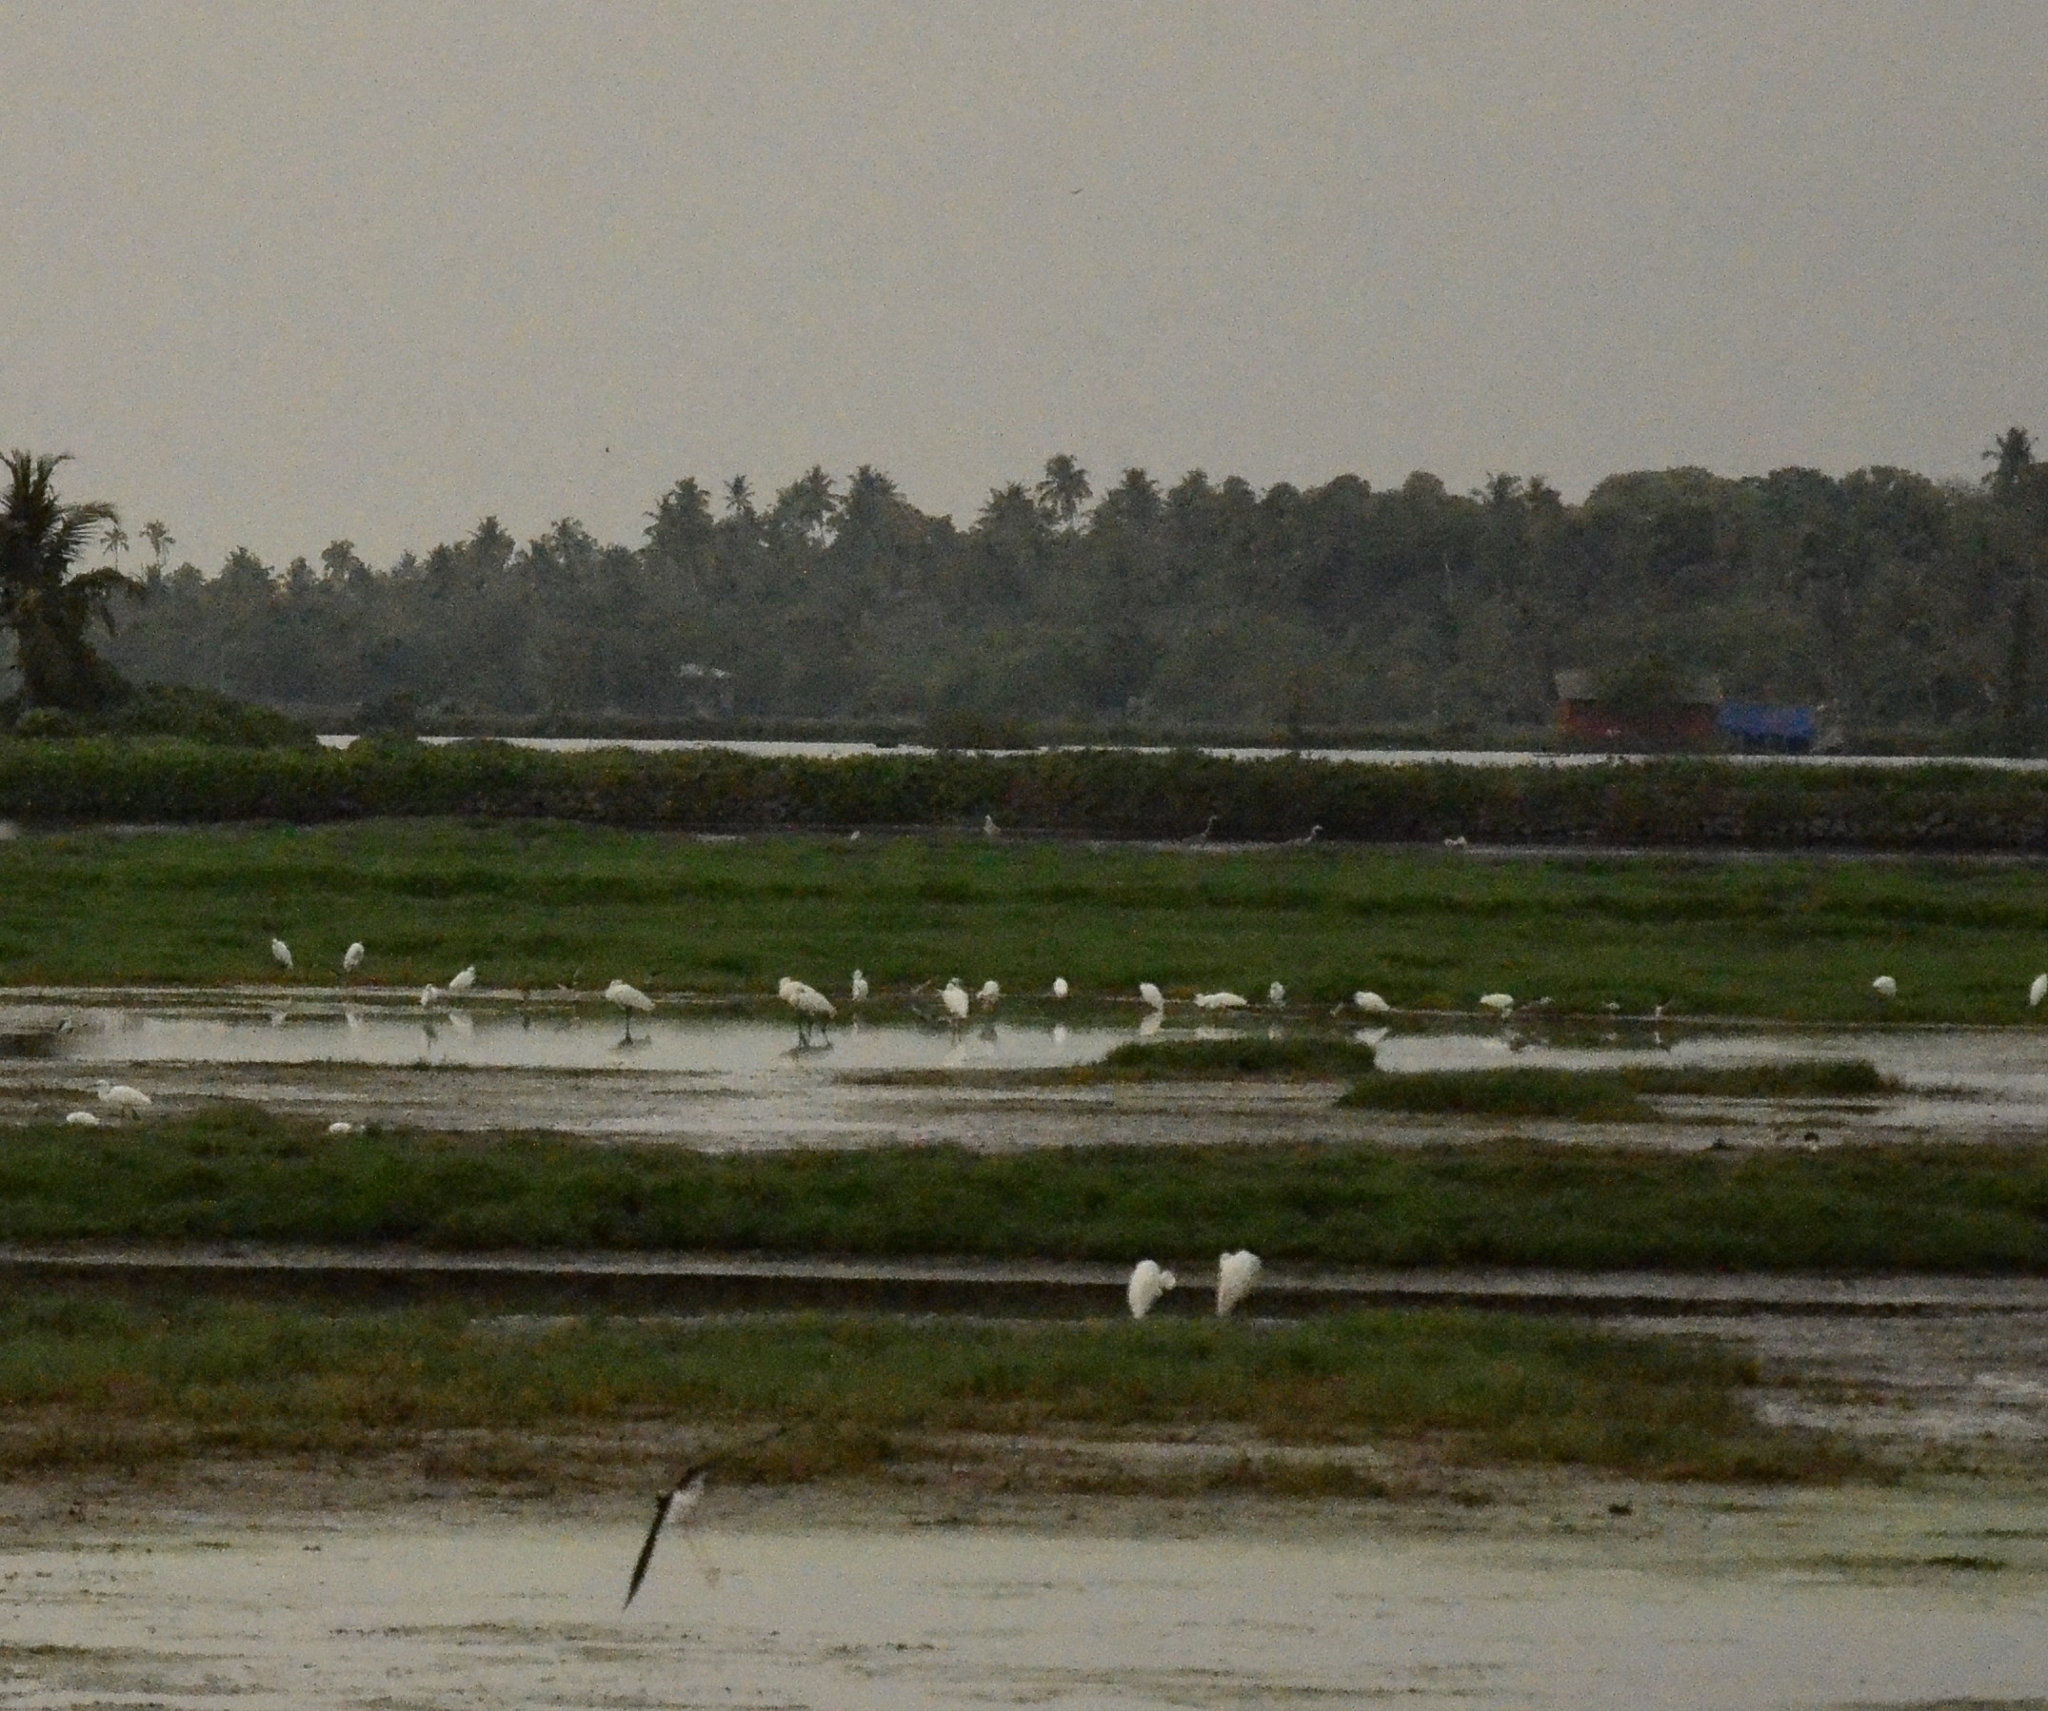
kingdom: Animalia
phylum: Chordata
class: Aves
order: Pelecaniformes
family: Threskiornithidae
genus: Platalea
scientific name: Platalea leucorodia
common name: Eurasian spoonbill
